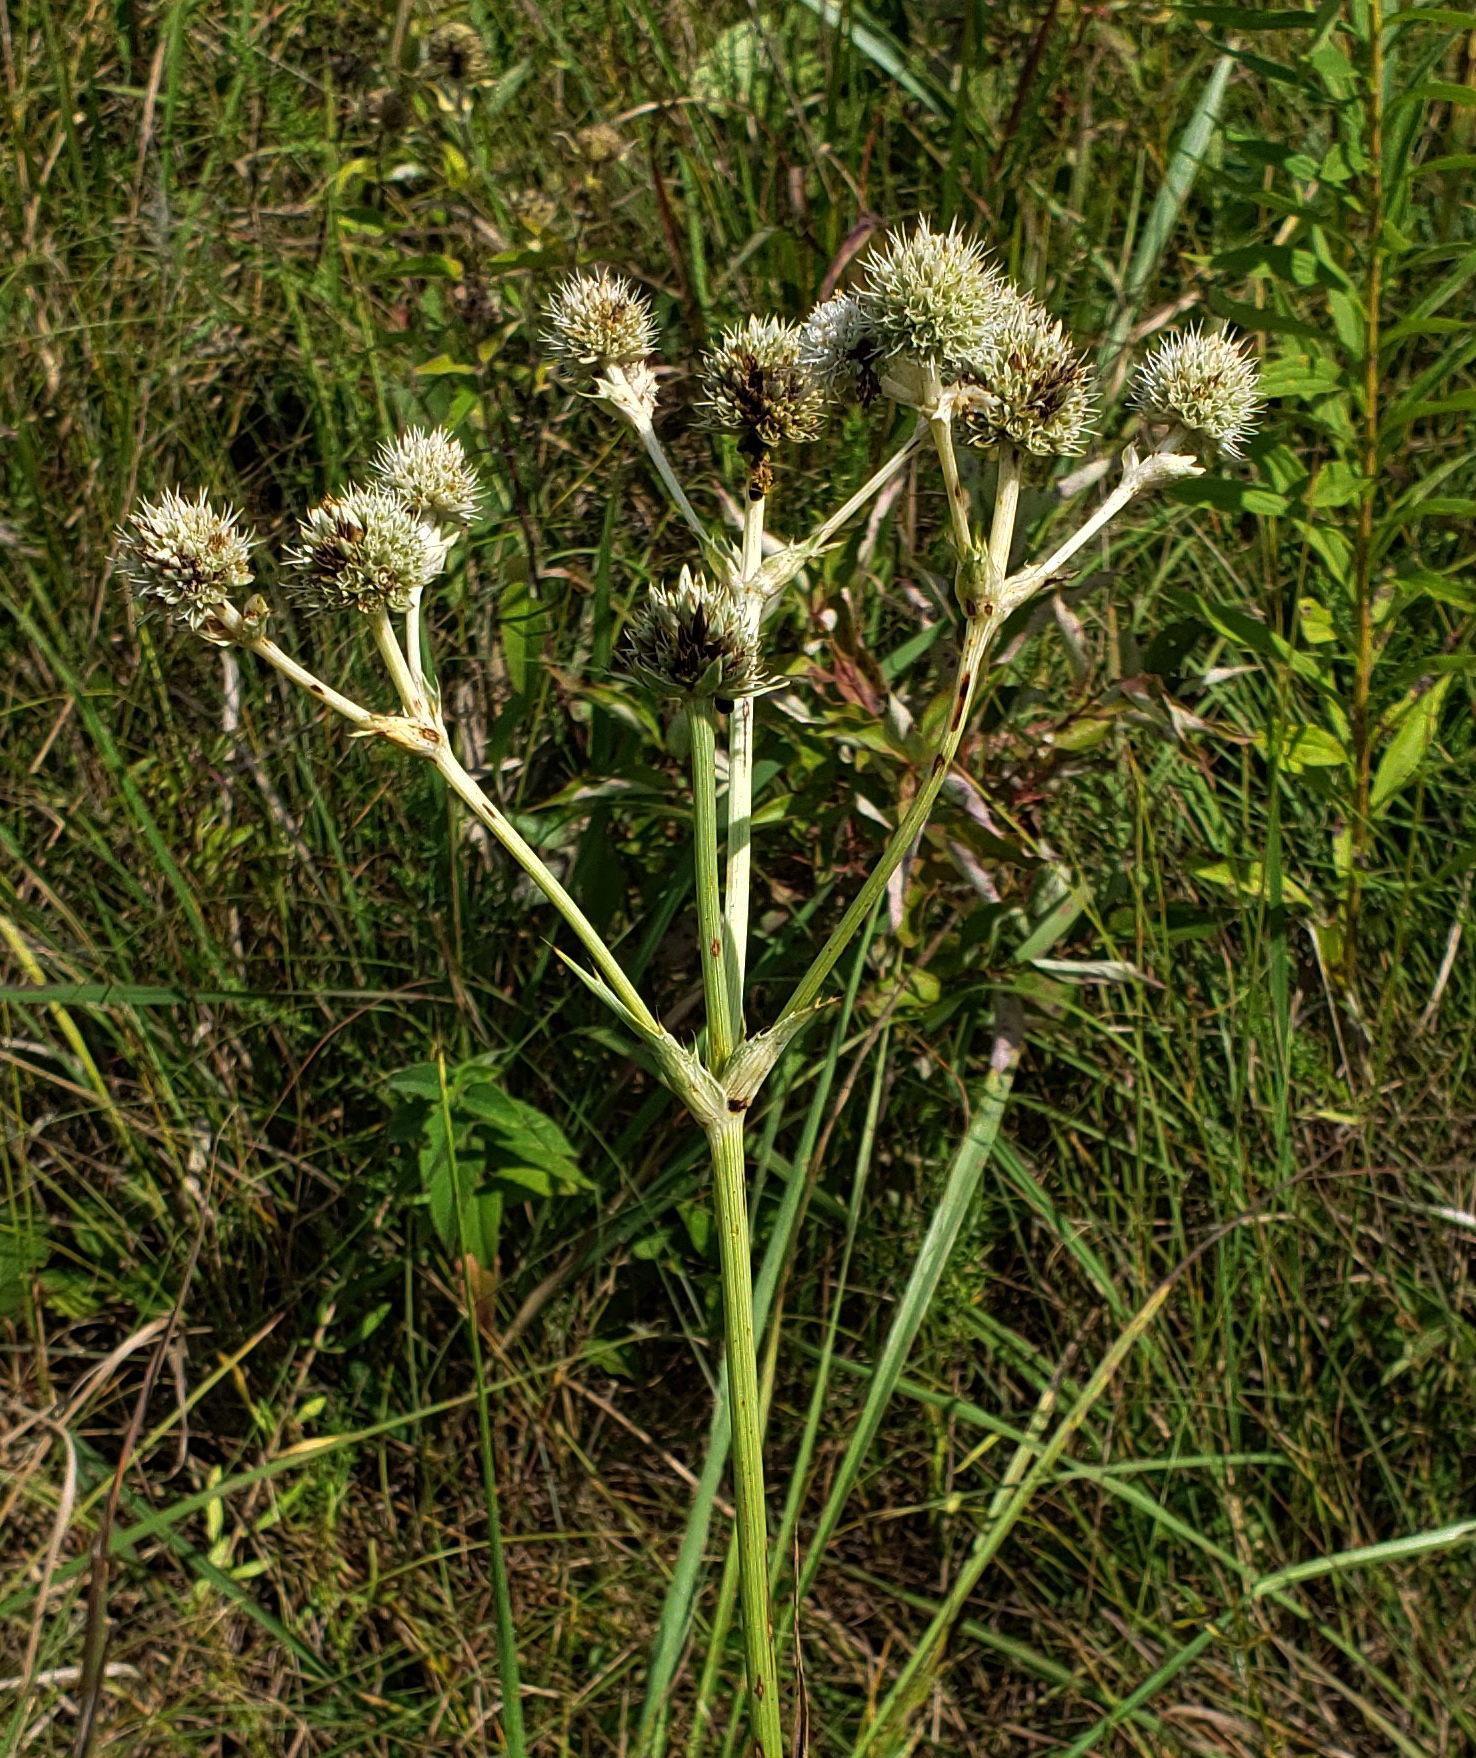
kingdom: Plantae
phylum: Tracheophyta
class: Magnoliopsida
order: Apiales
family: Apiaceae
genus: Eryngium
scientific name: Eryngium yuccifolium
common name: Button eryngo
